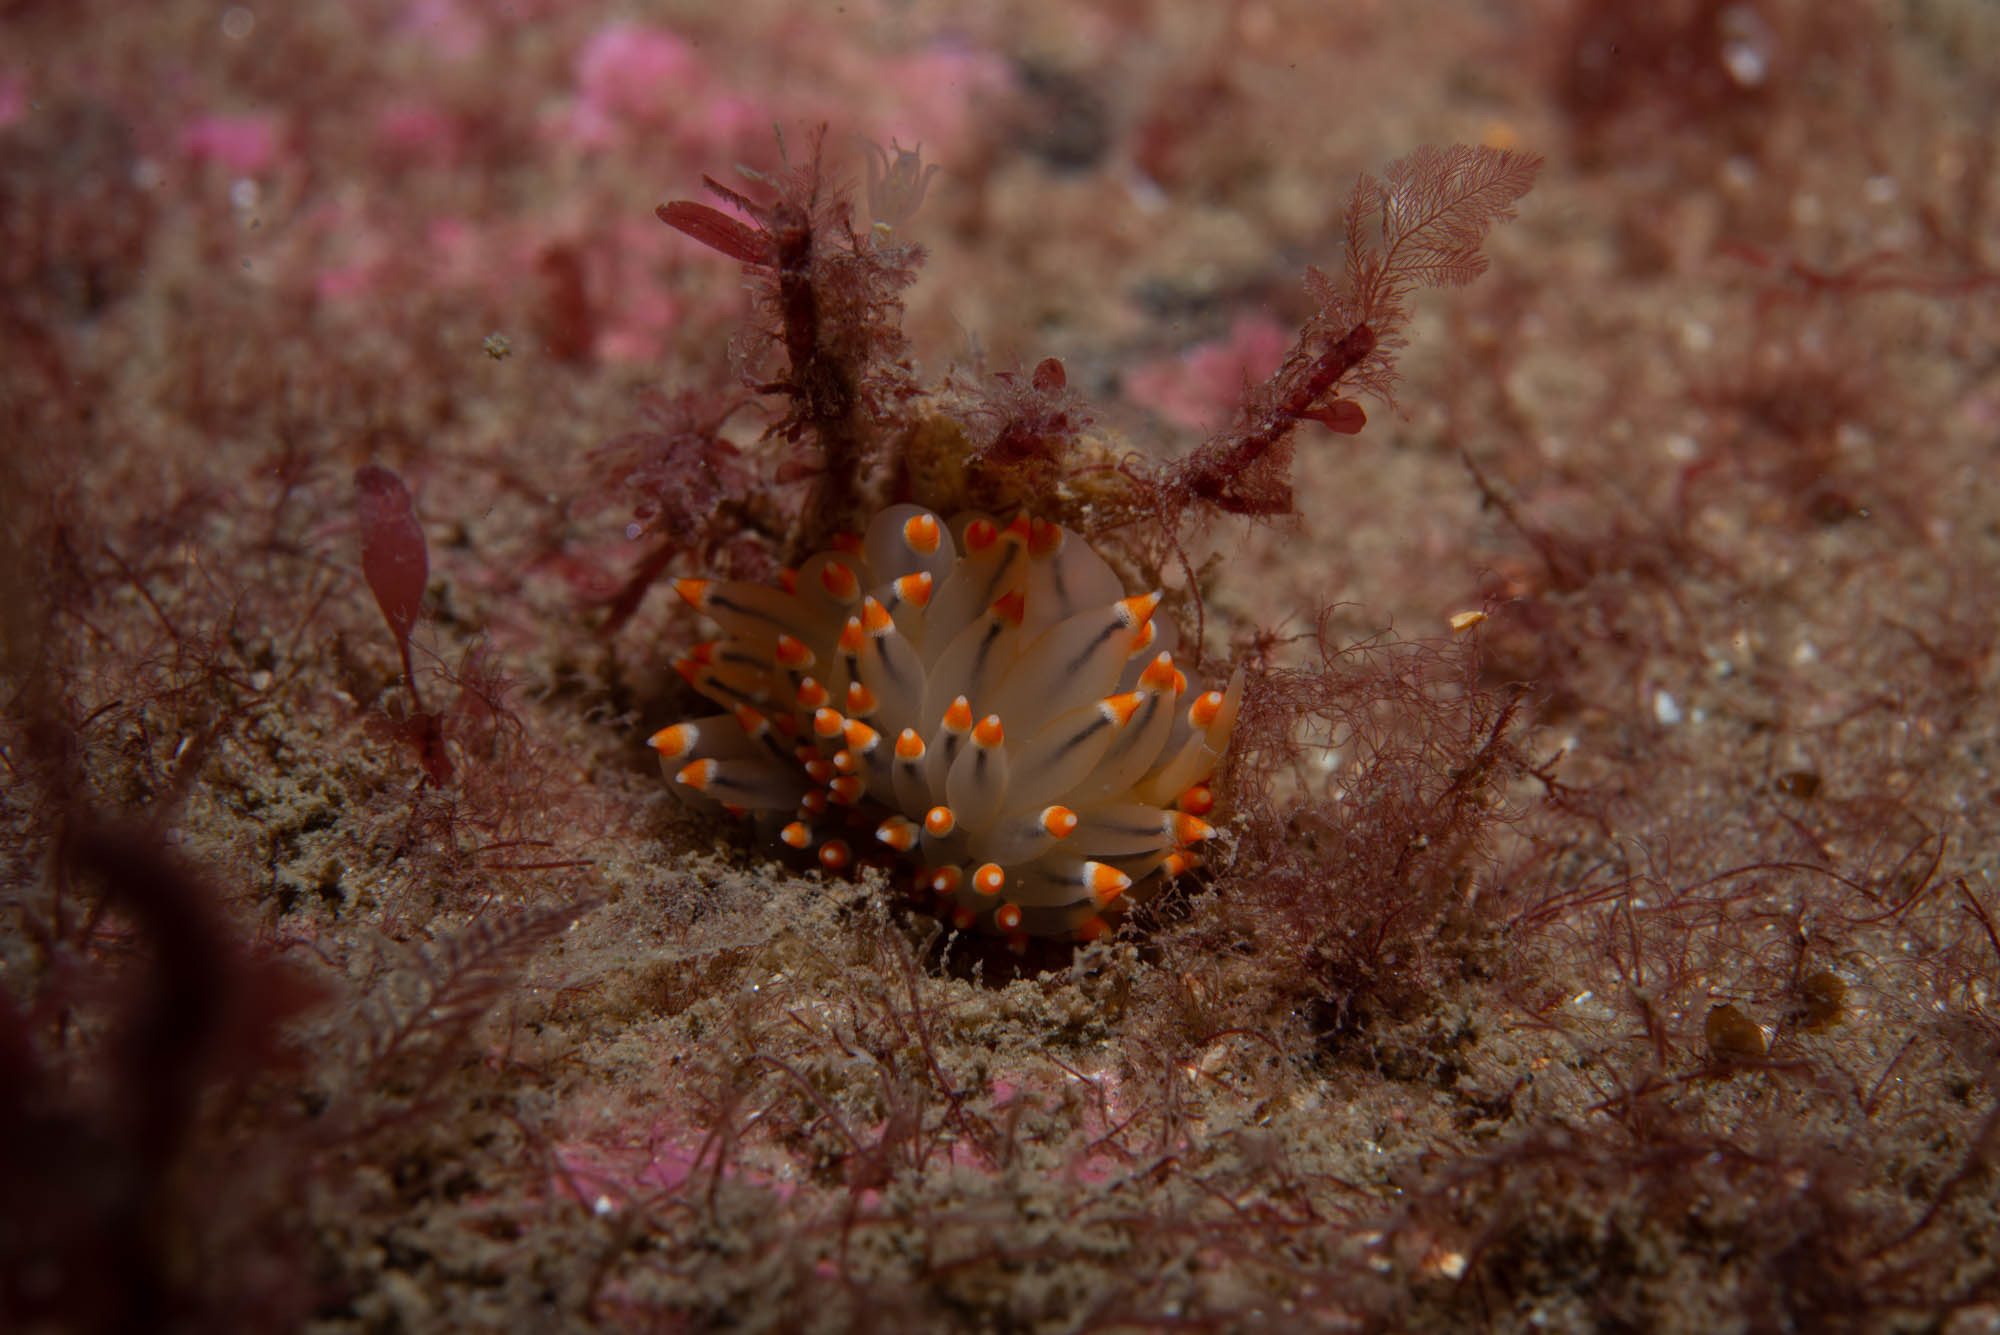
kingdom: Animalia
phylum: Mollusca
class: Gastropoda
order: Nudibranchia
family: Eubranchidae
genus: Eubranchus
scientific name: Eubranchus tricolor
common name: Painted balloon aeolis
